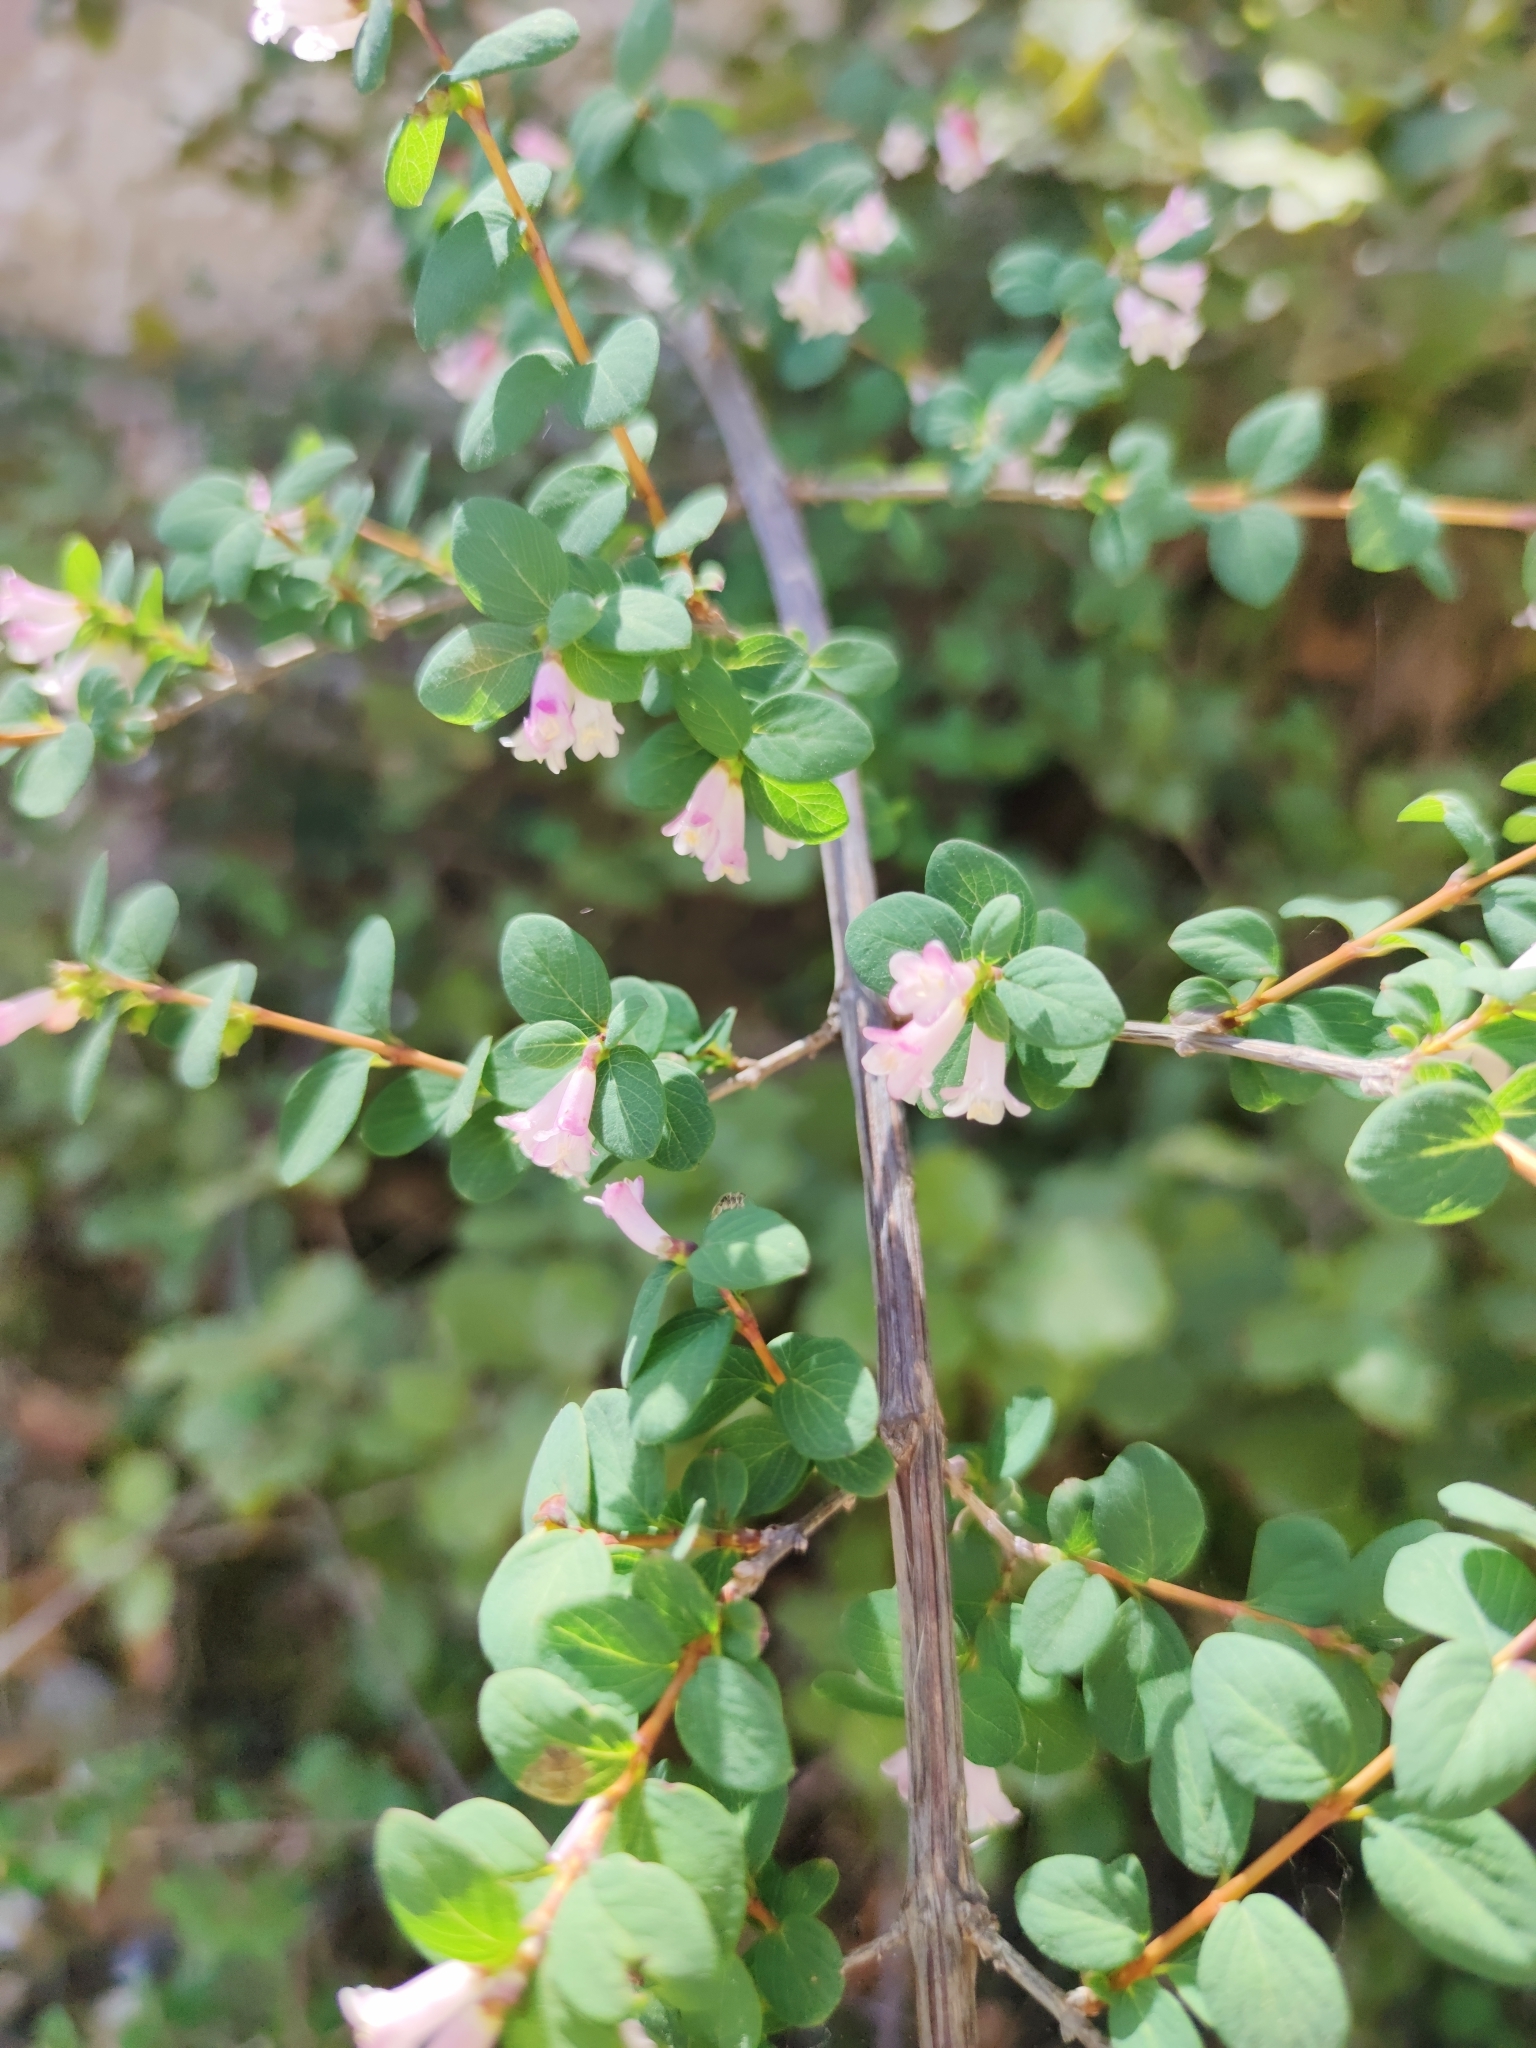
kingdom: Plantae
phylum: Tracheophyta
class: Magnoliopsida
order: Dipsacales
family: Caprifoliaceae
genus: Symphoricarpos
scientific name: Symphoricarpos microphyllus
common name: Small-leaved snowberry
